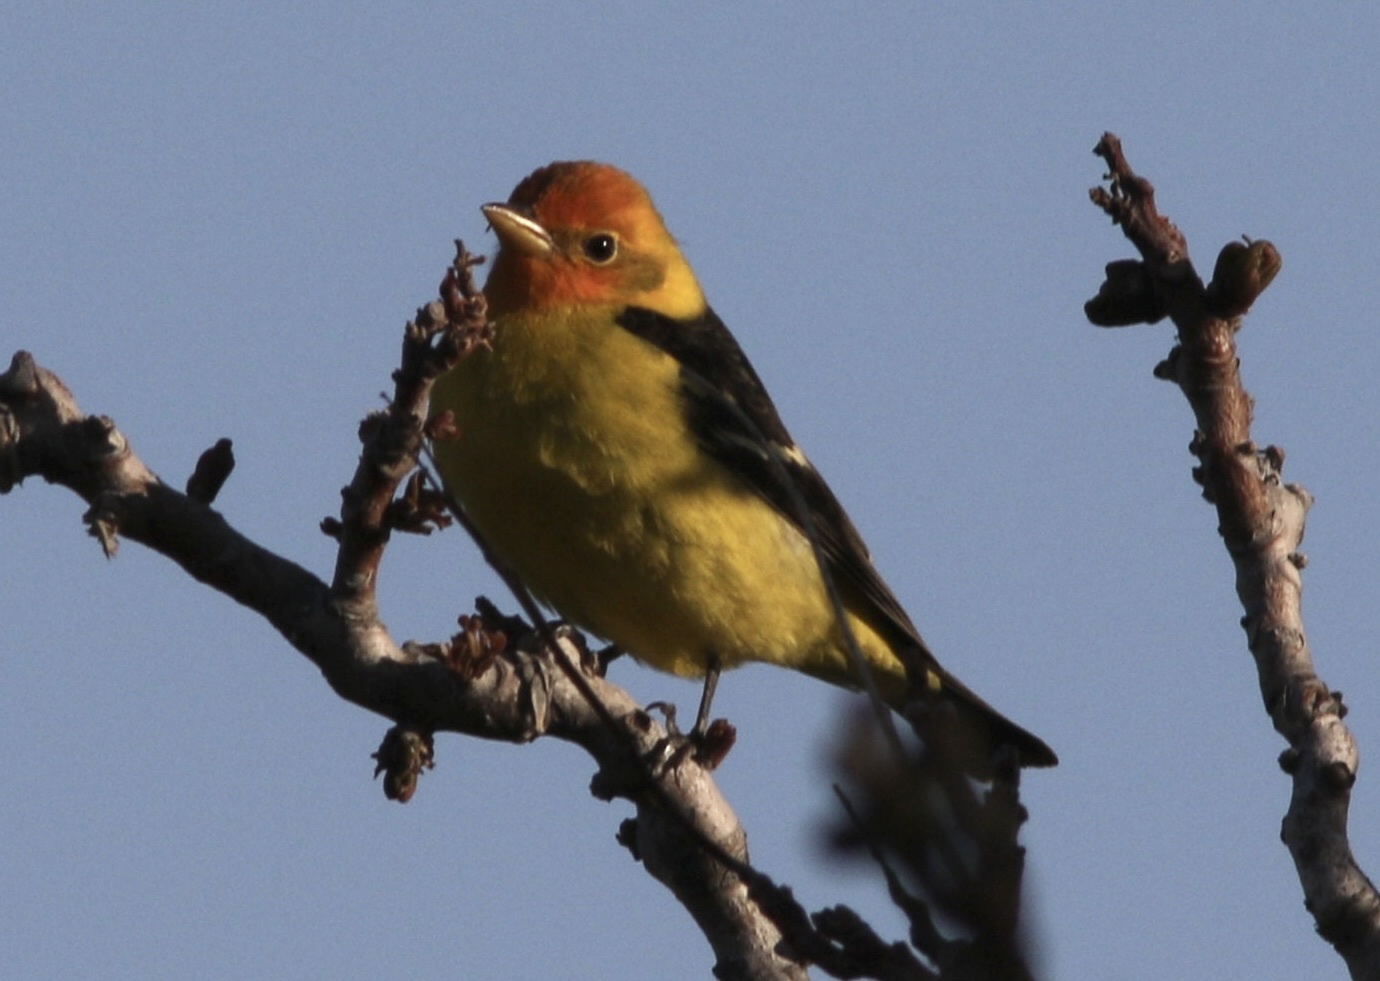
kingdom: Animalia
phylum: Chordata
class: Aves
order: Passeriformes
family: Cardinalidae
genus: Piranga
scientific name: Piranga ludoviciana
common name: Western tanager
